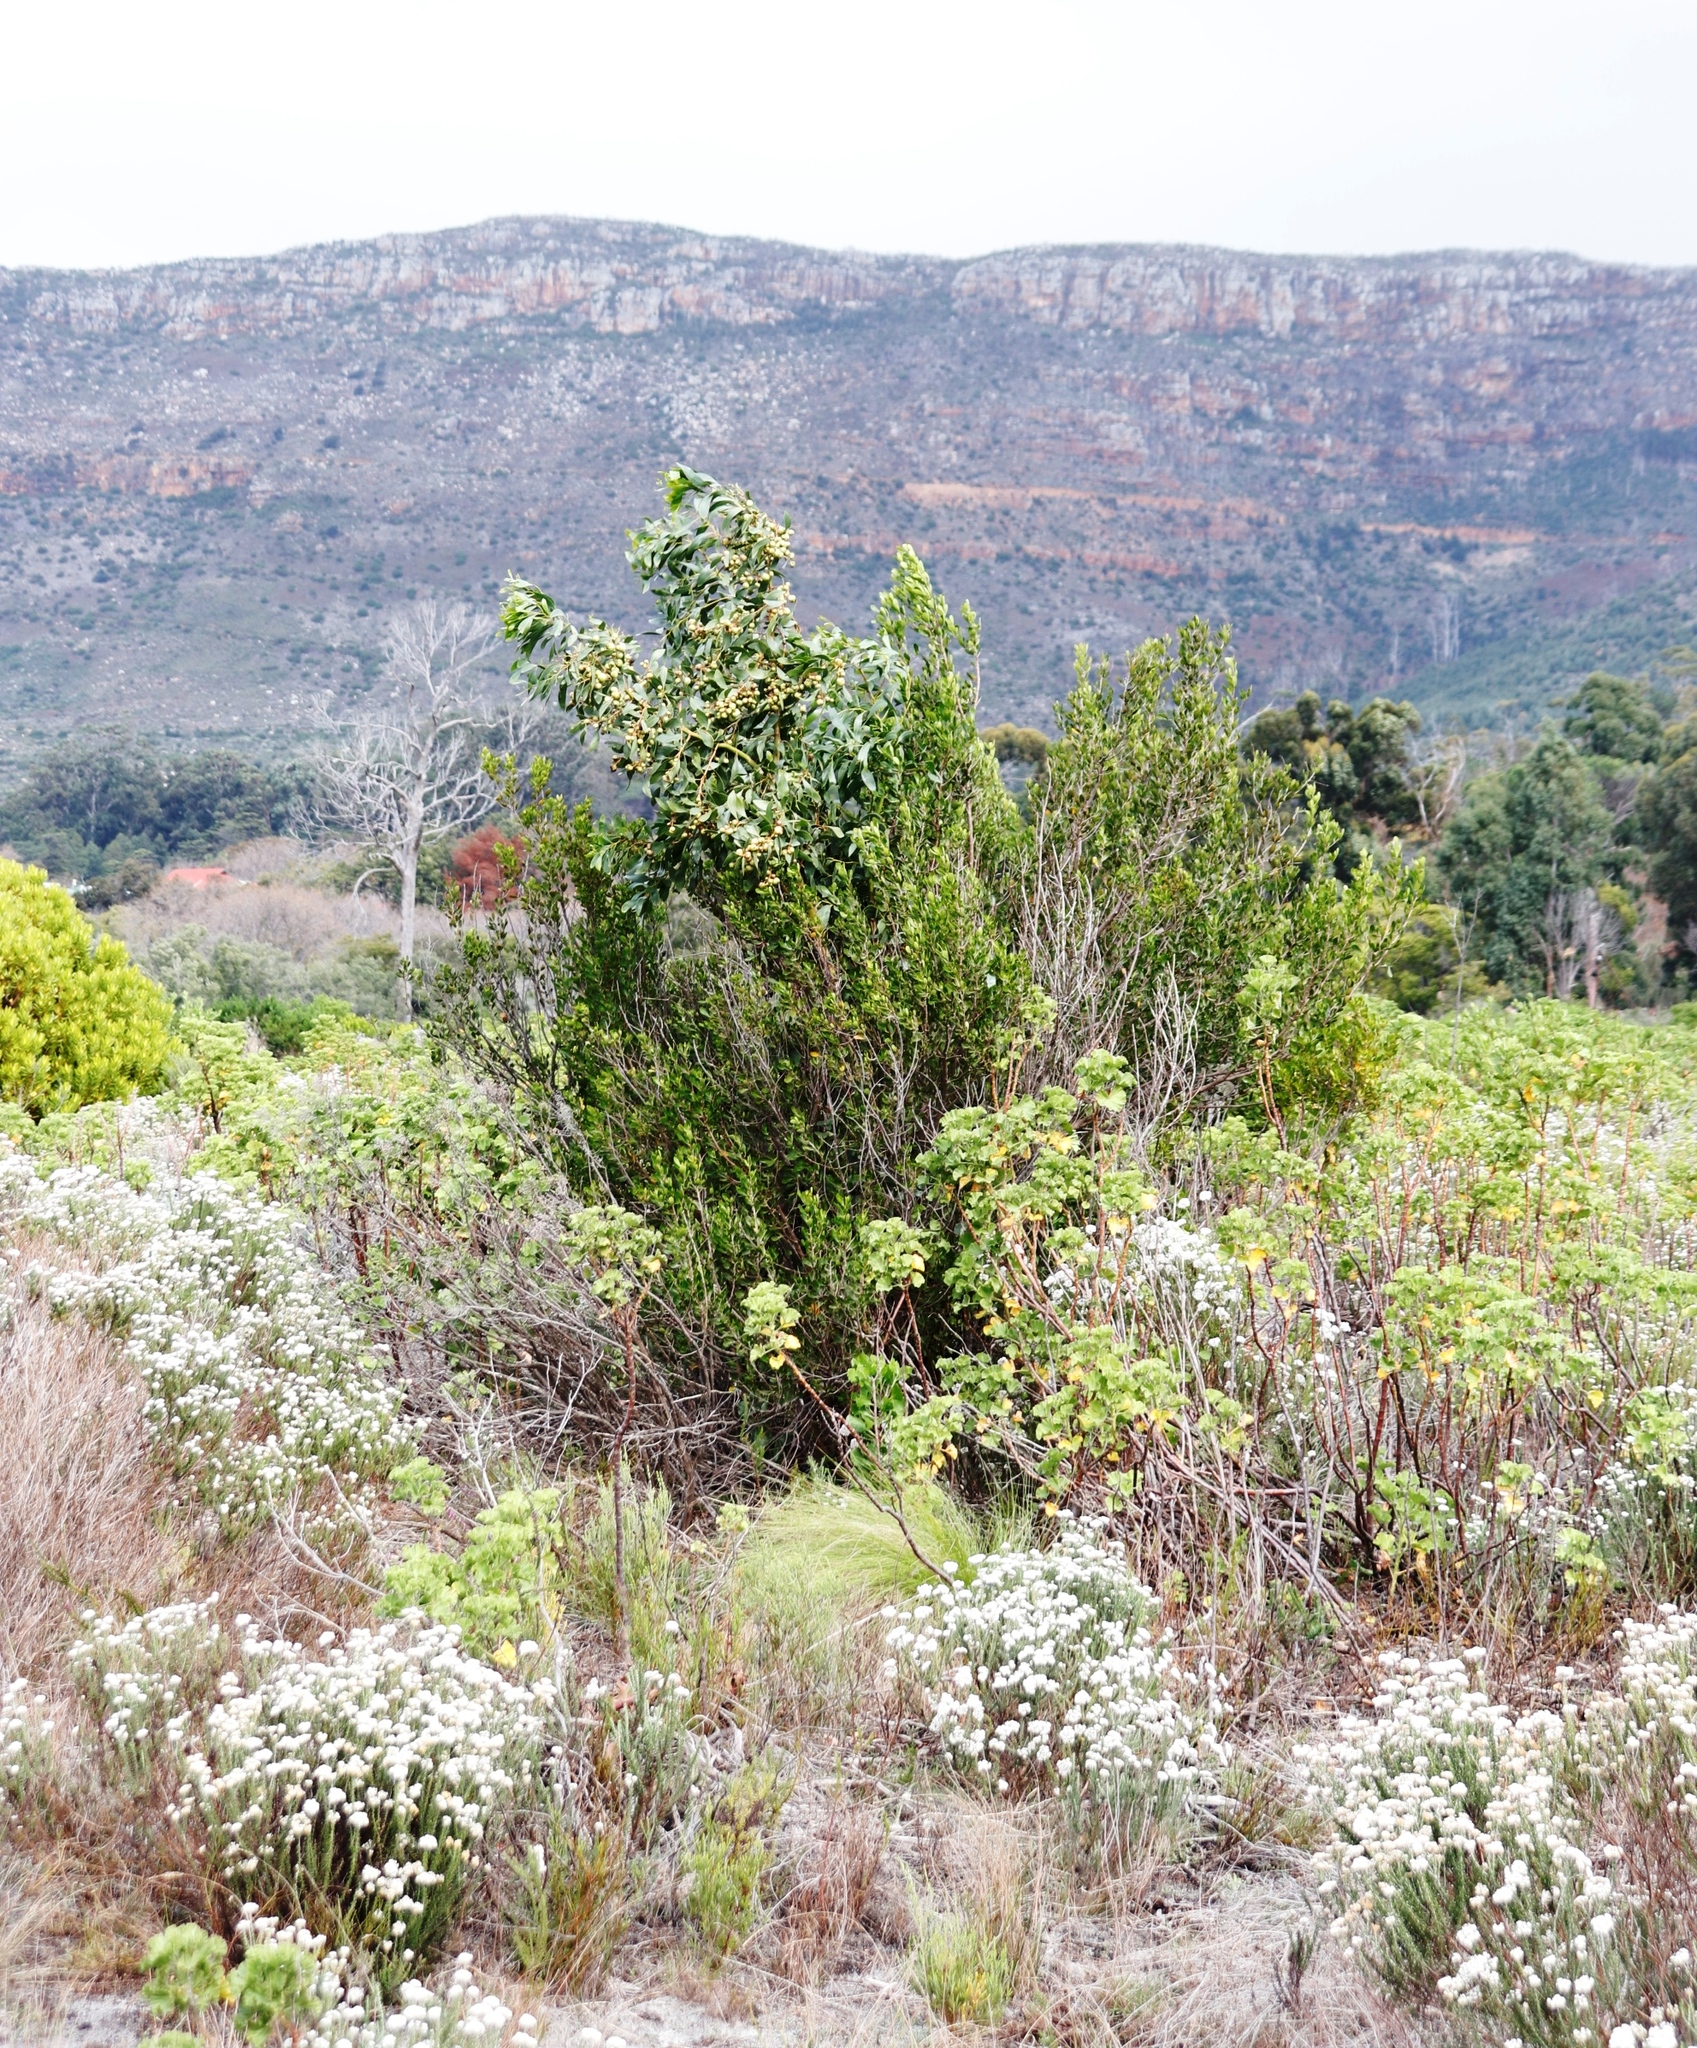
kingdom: Animalia
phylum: Arthropoda
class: Insecta
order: Hymenoptera
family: Pteromalidae
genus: Trichilogaster
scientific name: Trichilogaster signiventris
